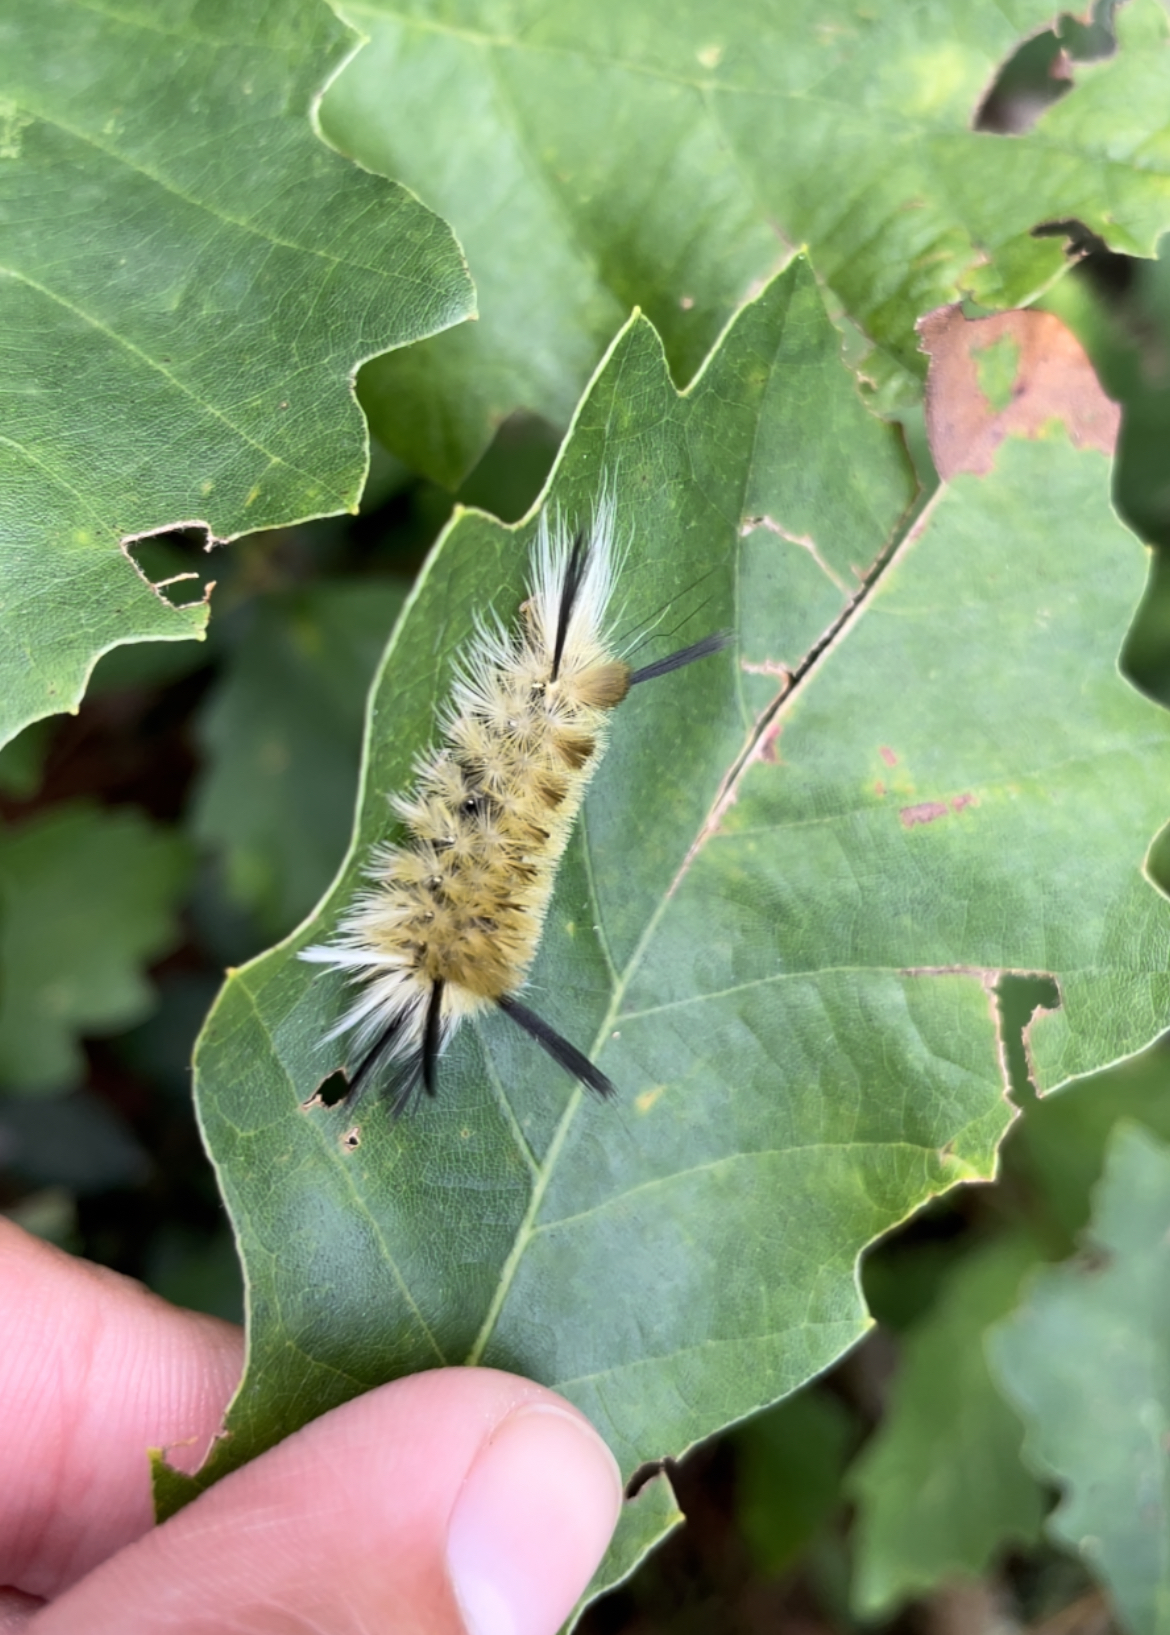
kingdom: Animalia
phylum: Arthropoda
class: Insecta
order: Lepidoptera
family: Erebidae
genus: Halysidota
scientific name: Halysidota tessellaris
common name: Banded tussock moth
